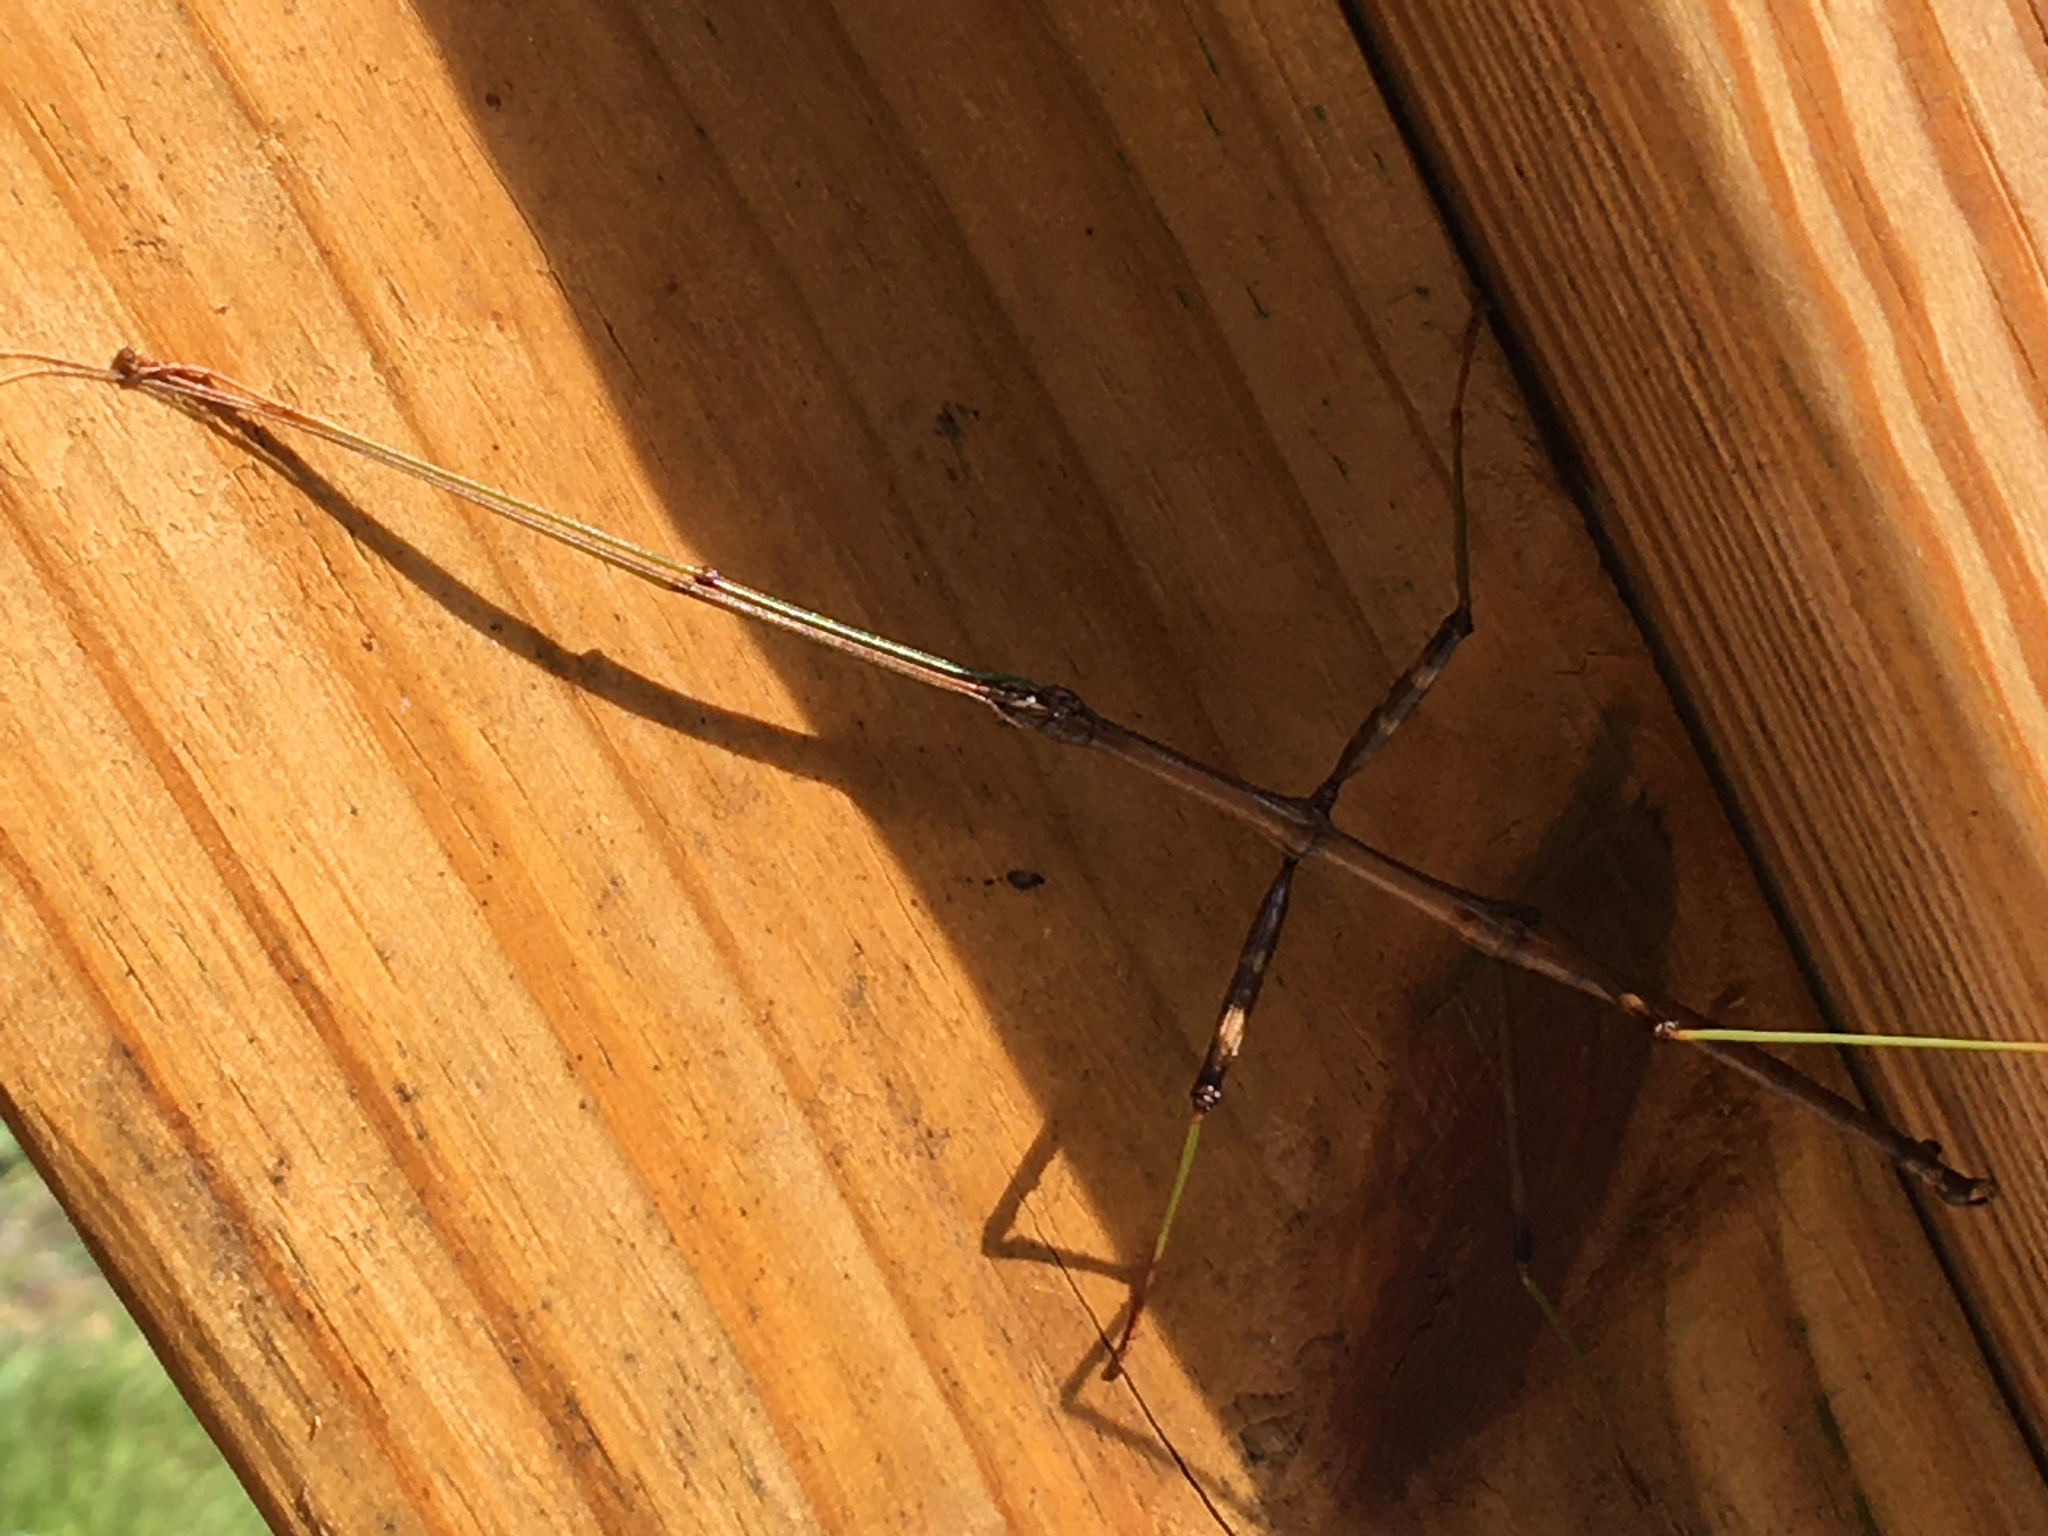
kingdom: Animalia
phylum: Arthropoda
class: Insecta
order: Phasmida
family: Diapheromeridae
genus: Diapheromera
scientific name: Diapheromera femorata
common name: Common american walkingstick
